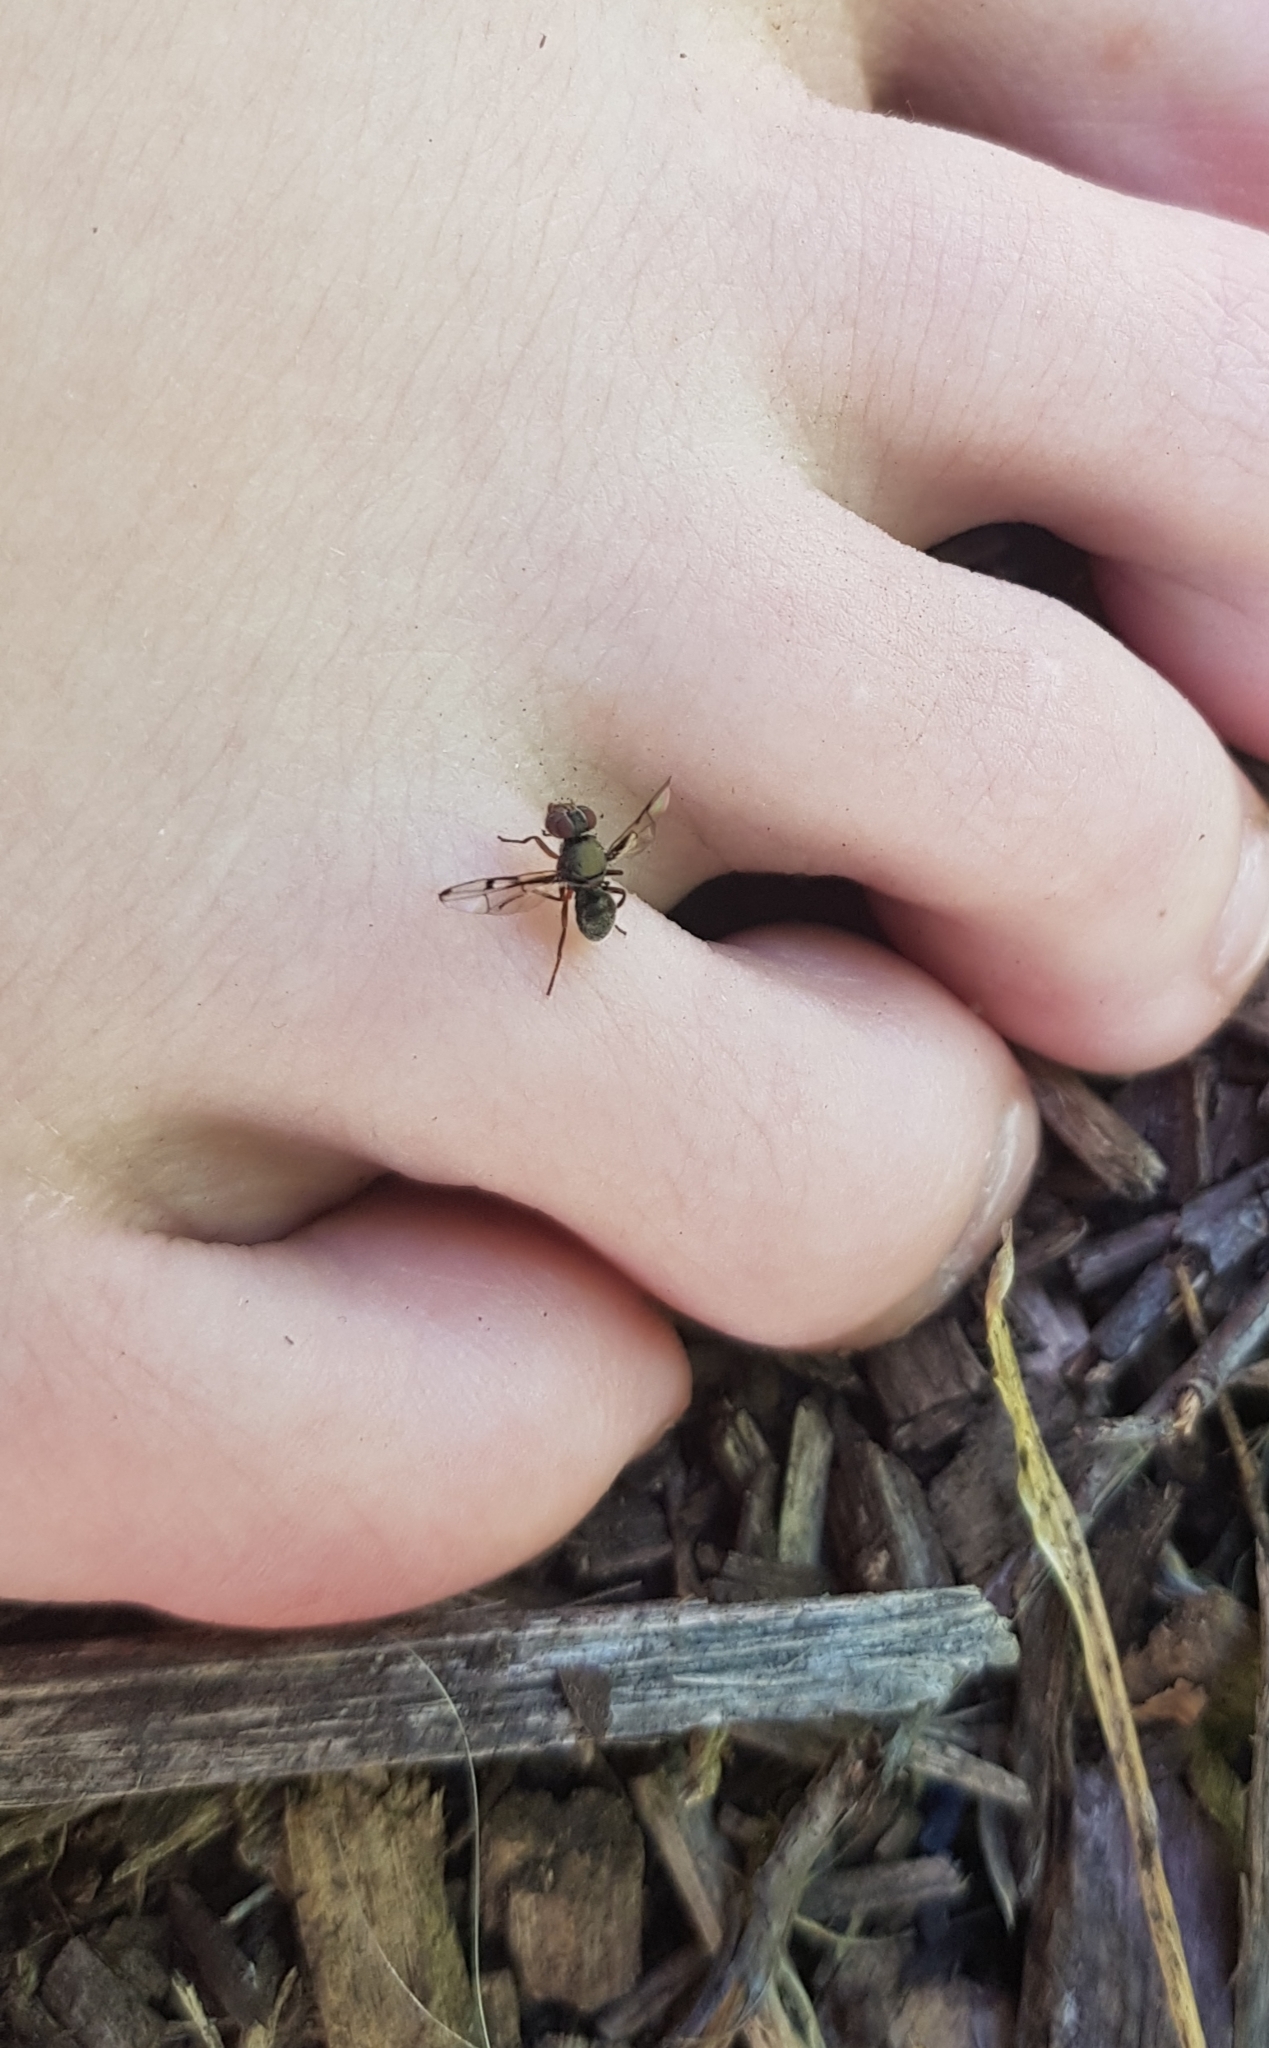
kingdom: Animalia
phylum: Arthropoda
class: Insecta
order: Diptera
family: Platystomatidae
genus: Pogonortalis
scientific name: Pogonortalis doclea
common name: Boatman fly
